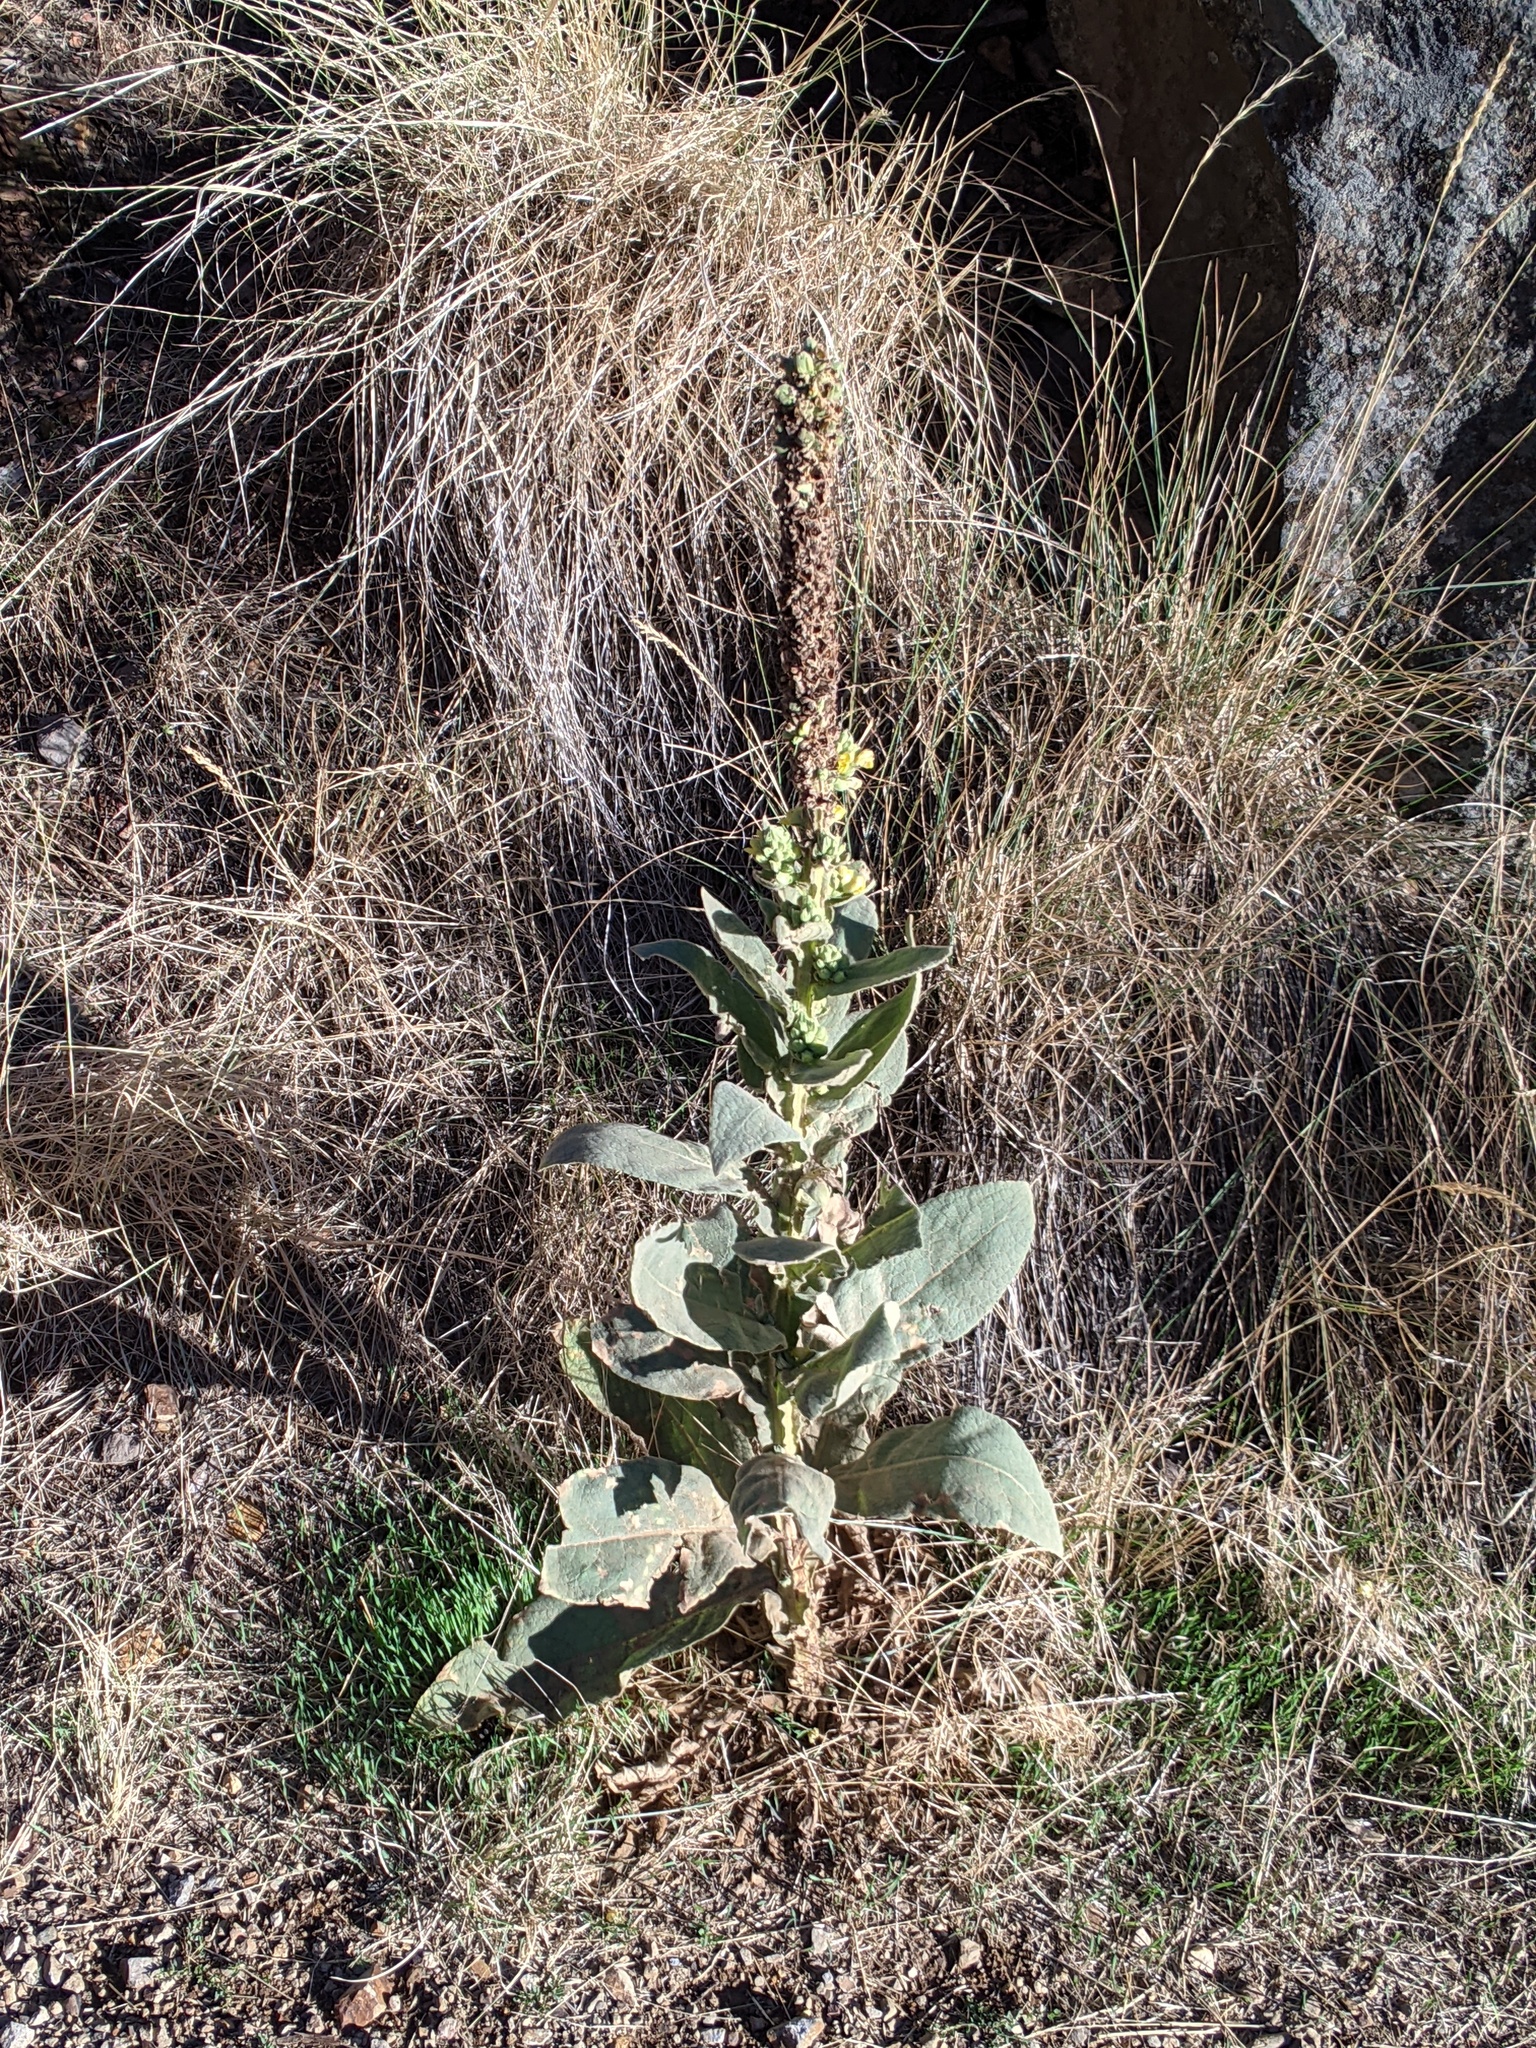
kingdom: Plantae
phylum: Tracheophyta
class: Magnoliopsida
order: Lamiales
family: Scrophulariaceae
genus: Verbascum
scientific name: Verbascum thapsus
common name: Common mullein
